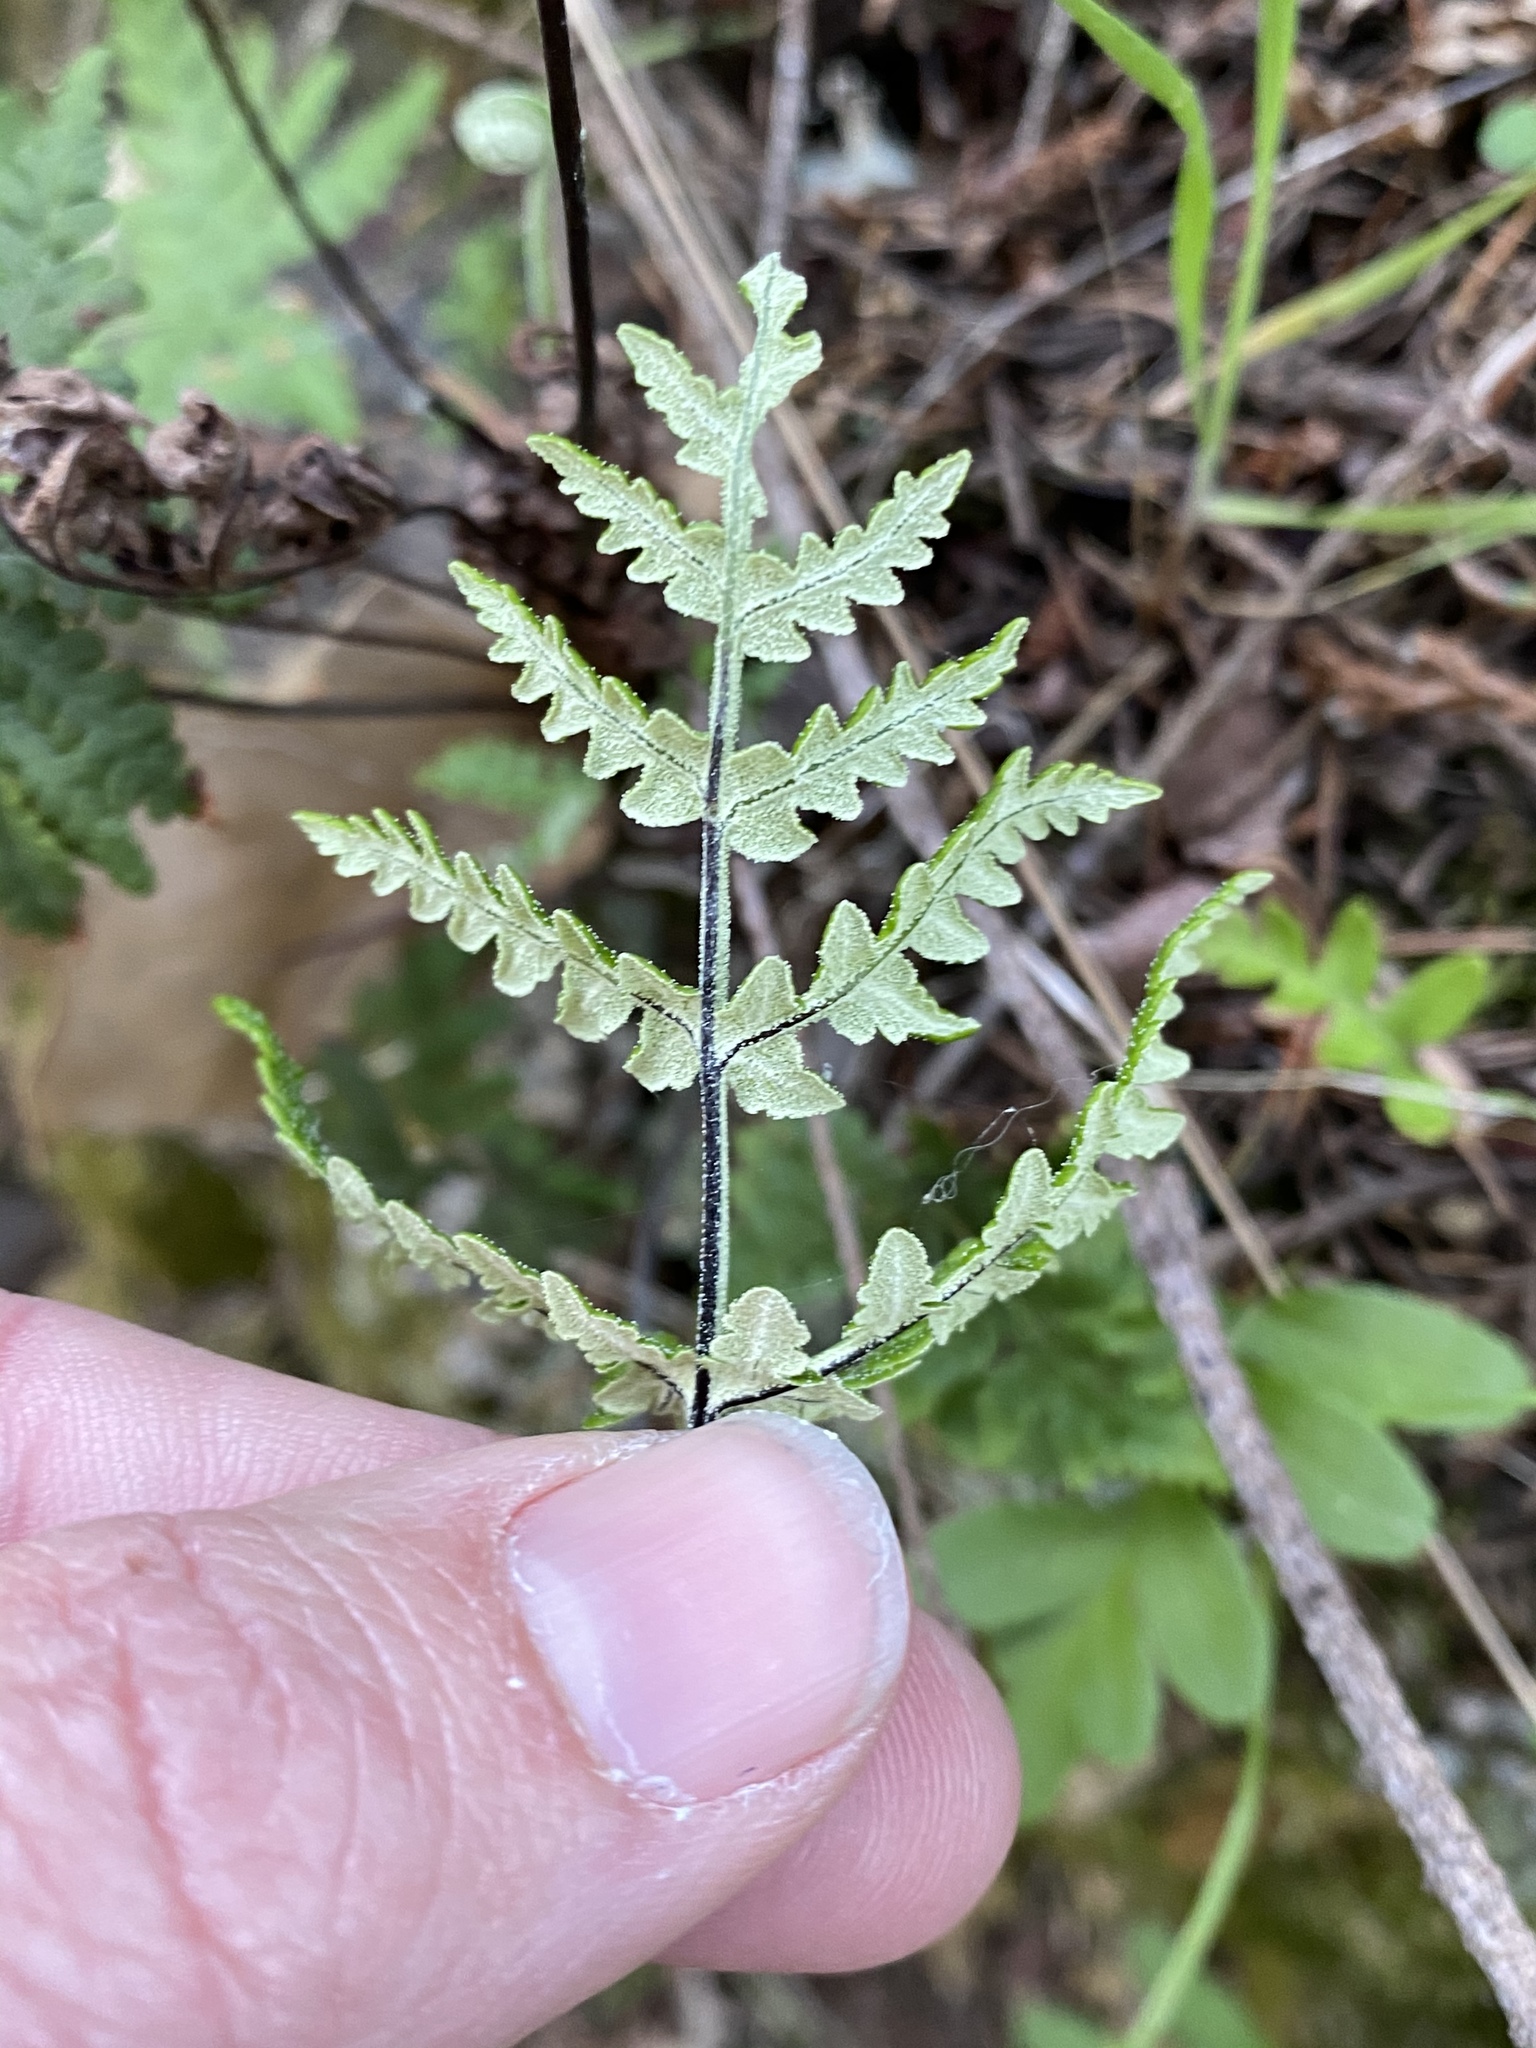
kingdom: Plantae
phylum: Tracheophyta
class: Polypodiopsida
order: Polypodiales
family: Pteridaceae
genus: Pentagramma
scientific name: Pentagramma triangularis
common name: Gold fern
